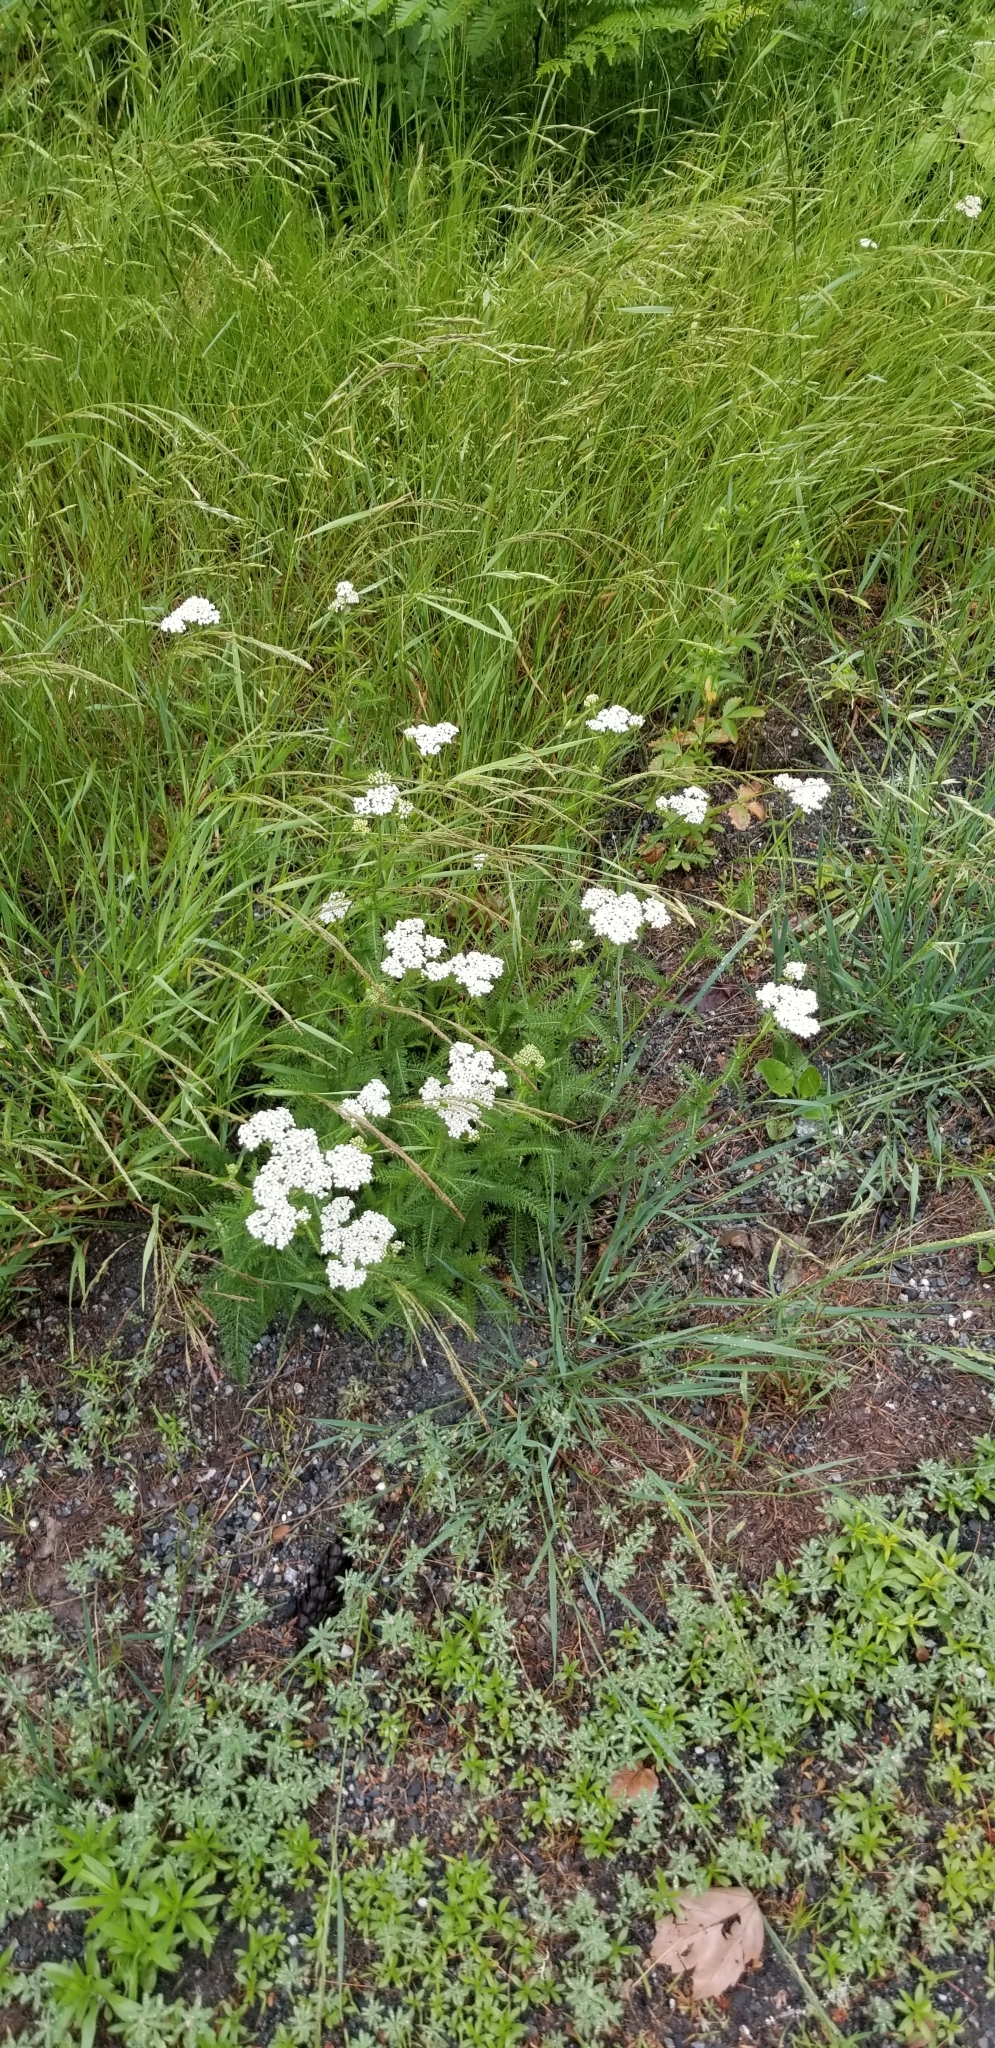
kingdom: Plantae
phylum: Tracheophyta
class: Magnoliopsida
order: Asterales
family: Asteraceae
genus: Achillea
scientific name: Achillea millefolium
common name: Yarrow
